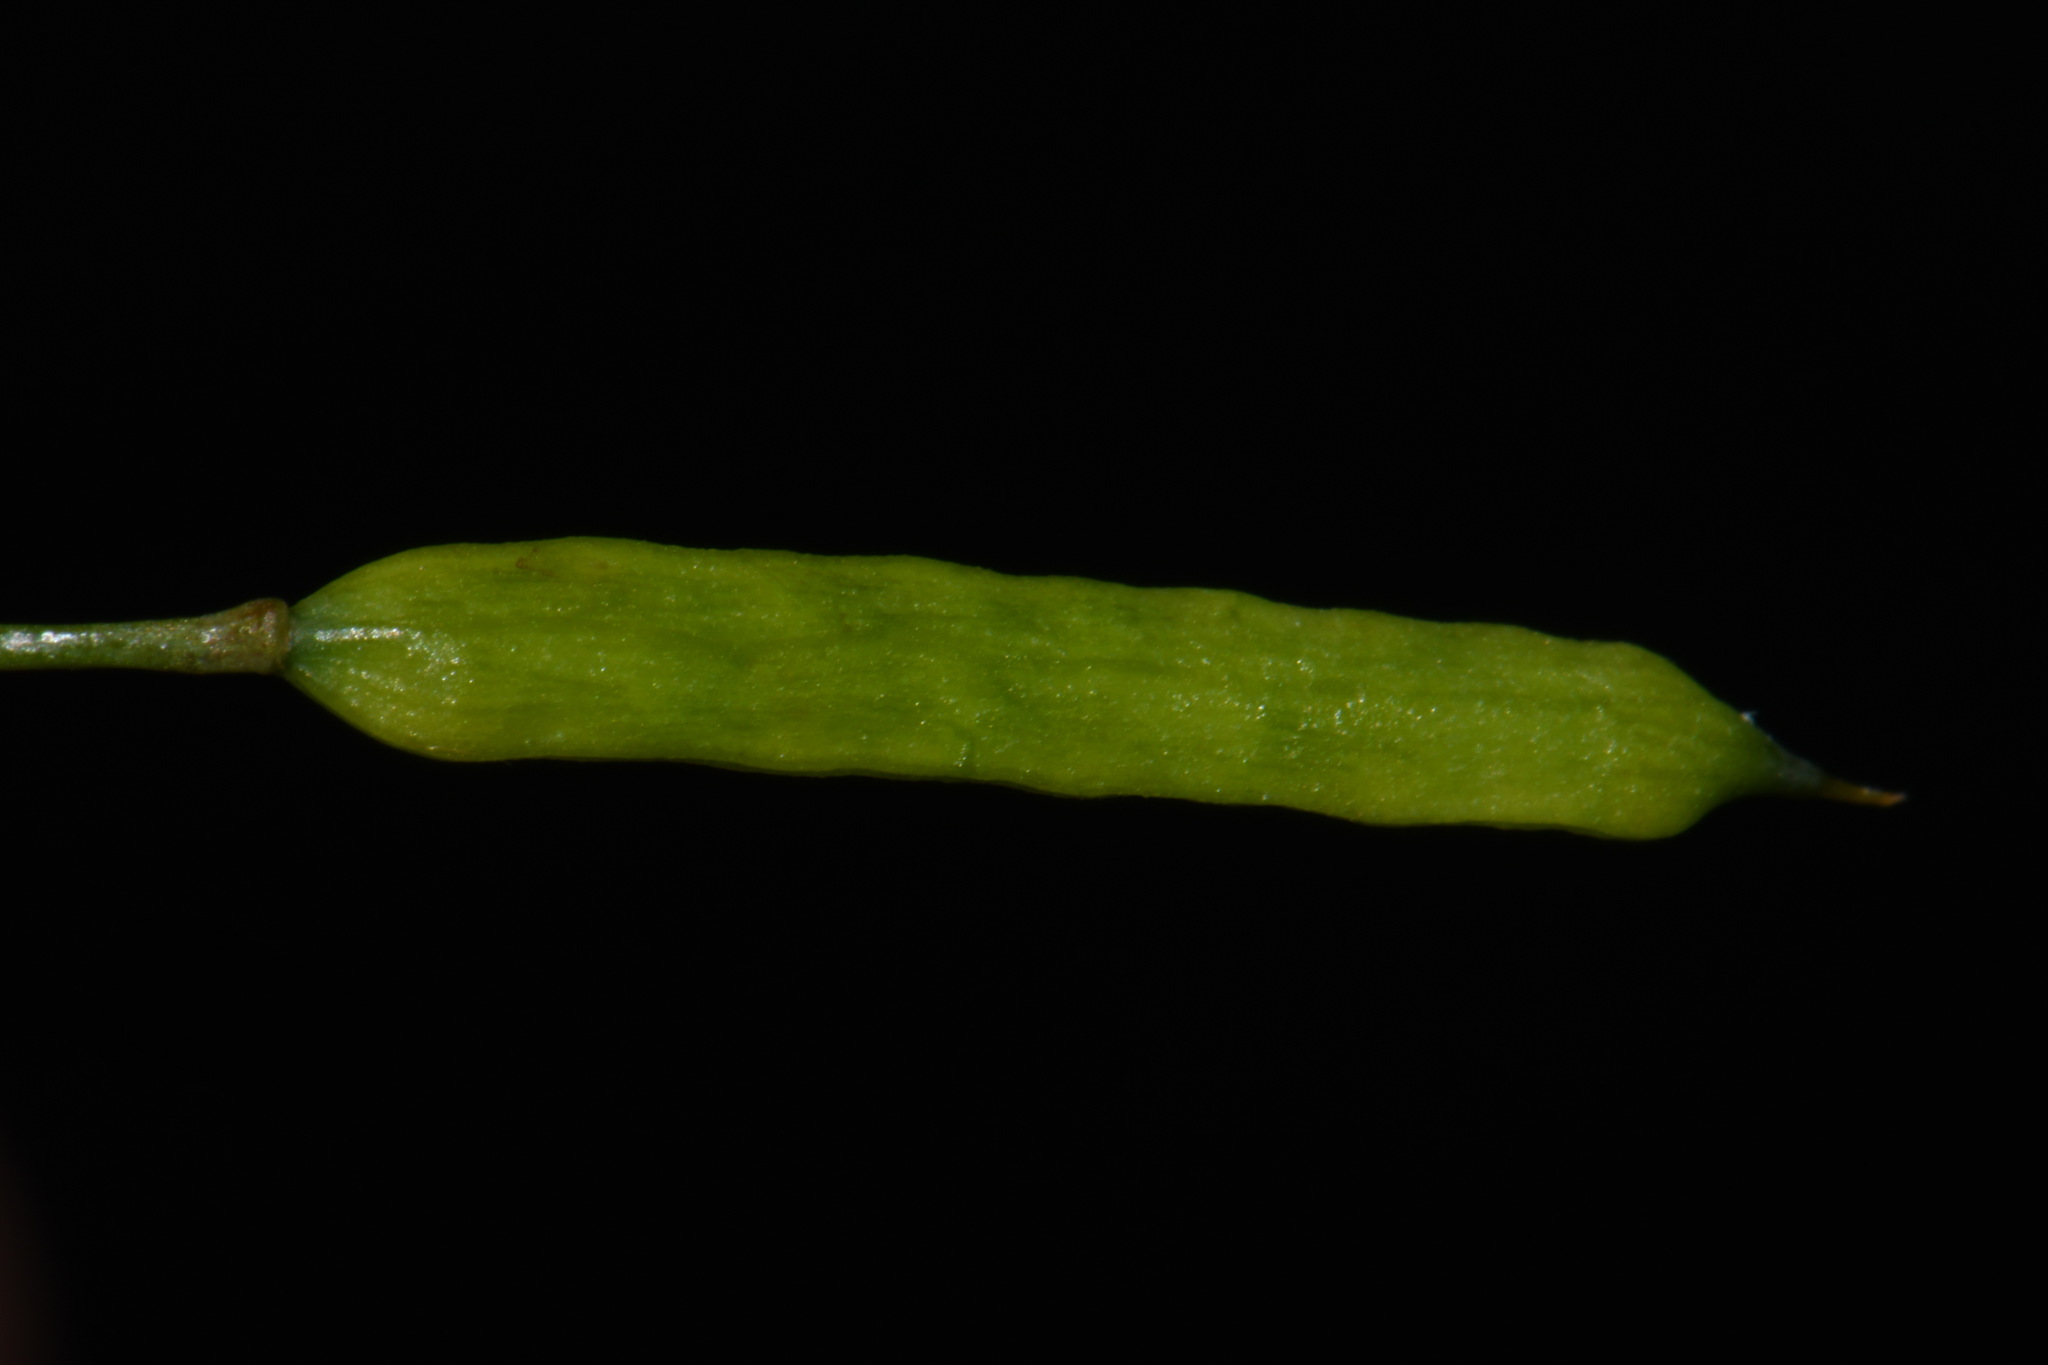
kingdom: Plantae
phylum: Tracheophyta
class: Magnoliopsida
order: Ranunculales
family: Papaveraceae
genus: Corydalis
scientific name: Corydalis flavula
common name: Yellow corydalis
